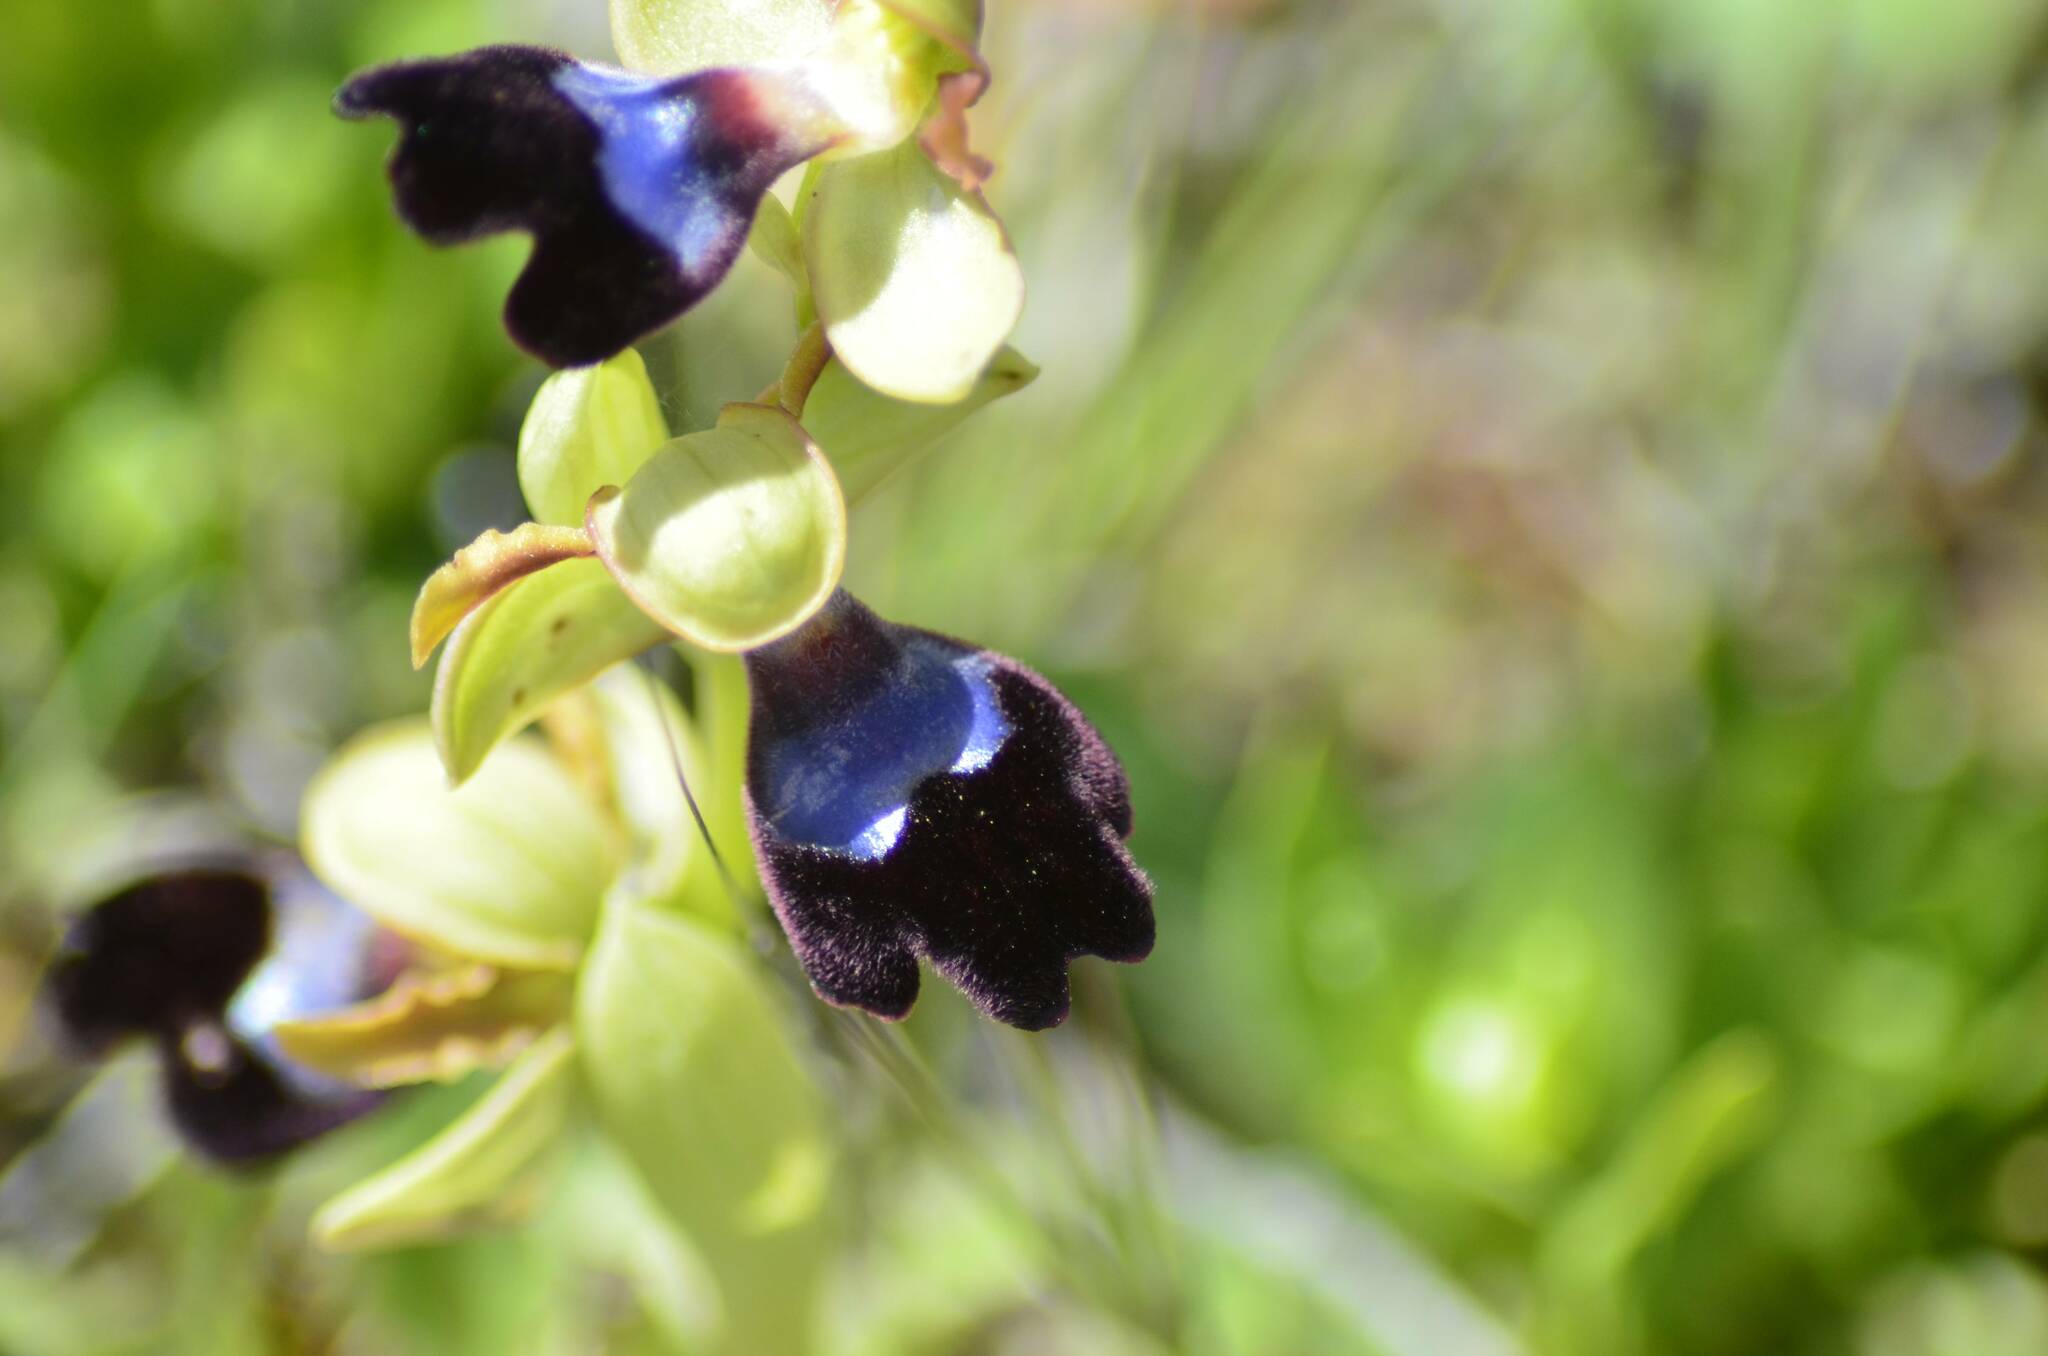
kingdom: Plantae
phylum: Tracheophyta
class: Liliopsida
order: Asparagales
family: Orchidaceae
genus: Ophrys
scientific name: Ophrys atlantica
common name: Atlantic ophrys
